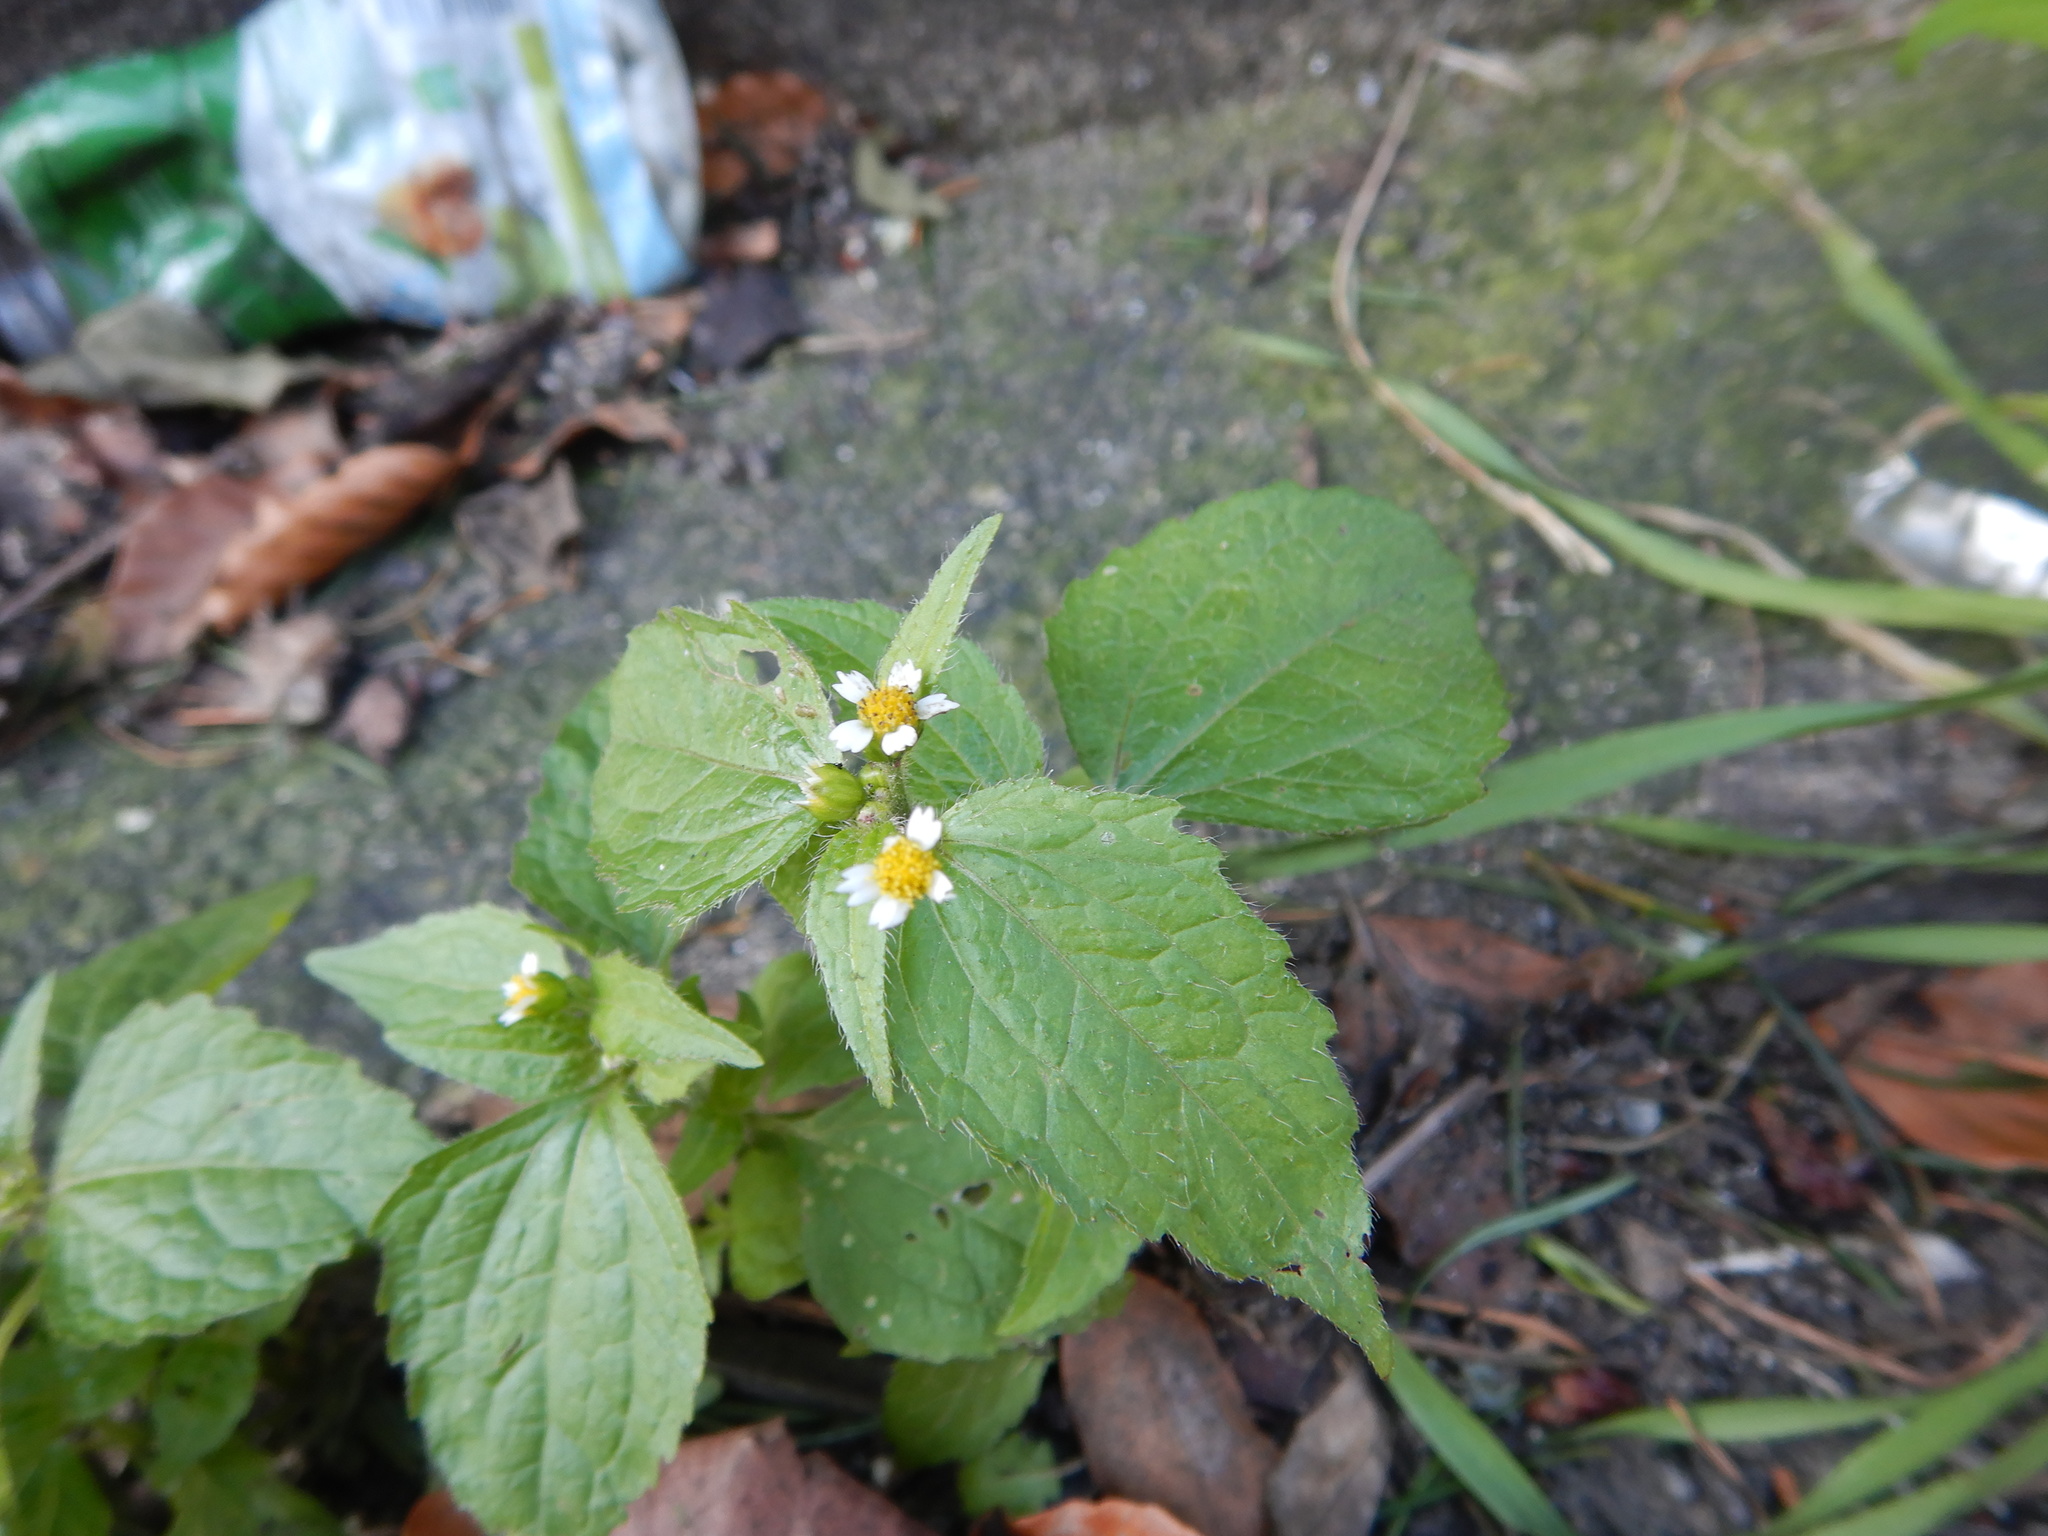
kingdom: Plantae
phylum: Tracheophyta
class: Magnoliopsida
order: Asterales
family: Asteraceae
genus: Galinsoga
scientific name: Galinsoga quadriradiata
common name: Shaggy soldier
